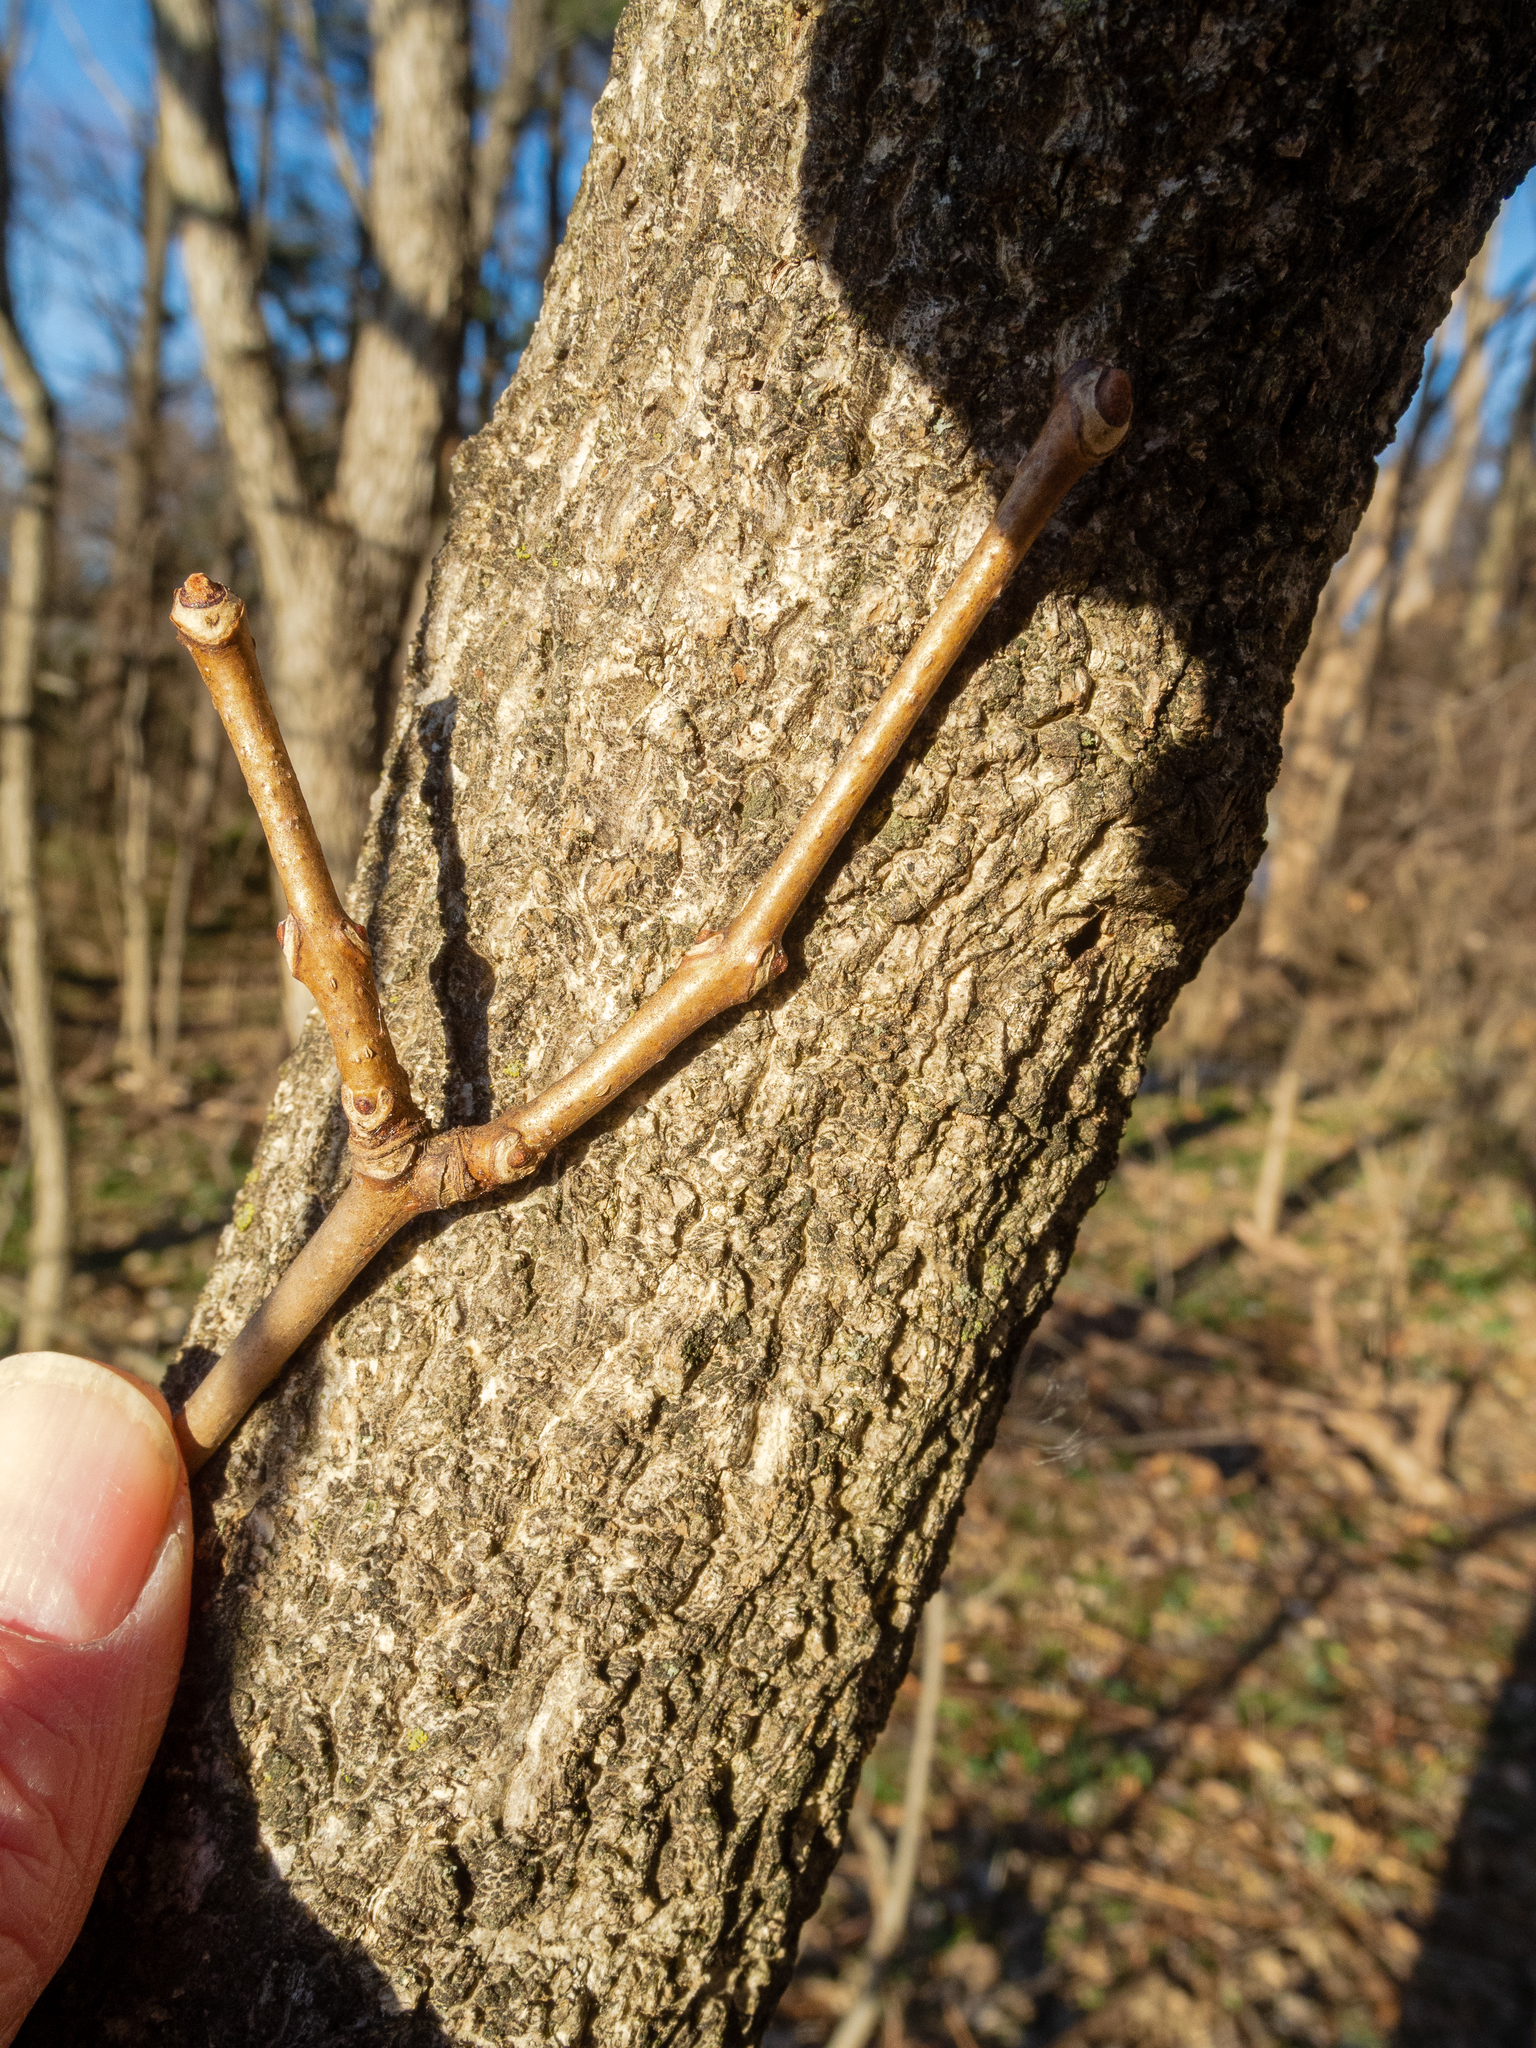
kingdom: Plantae
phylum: Tracheophyta
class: Magnoliopsida
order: Sapindales
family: Rutaceae
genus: Phellodendron
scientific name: Phellodendron amurense
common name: Amur corktree
